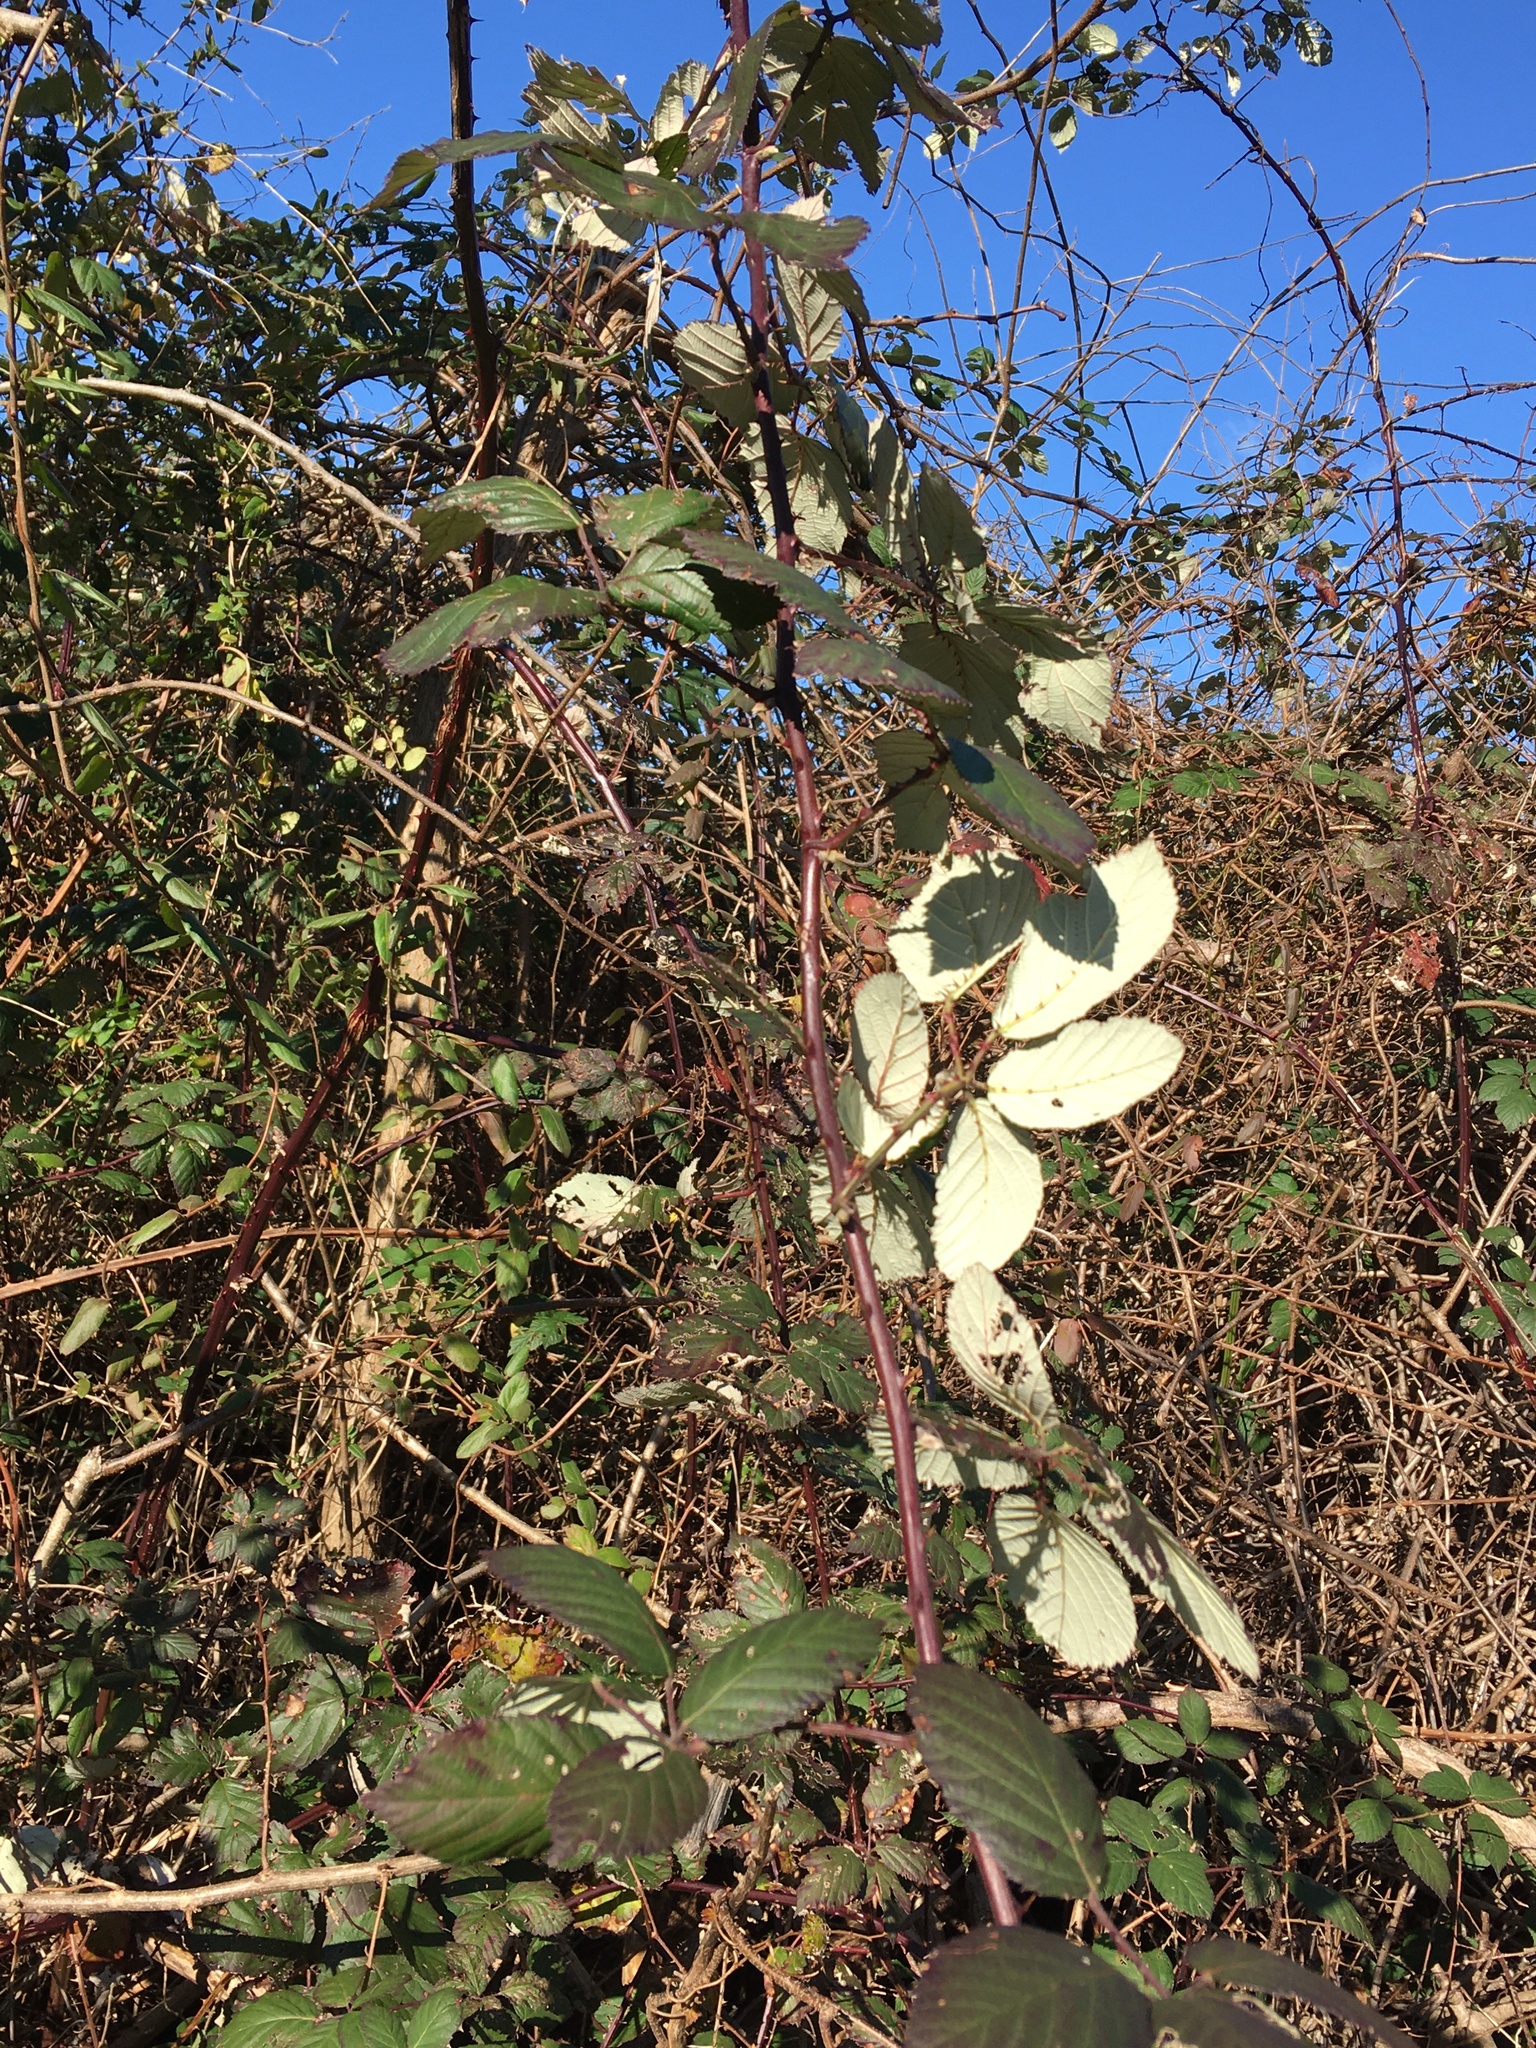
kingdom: Plantae
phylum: Tracheophyta
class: Magnoliopsida
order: Rosales
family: Rosaceae
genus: Rubus
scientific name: Rubus bifrons
